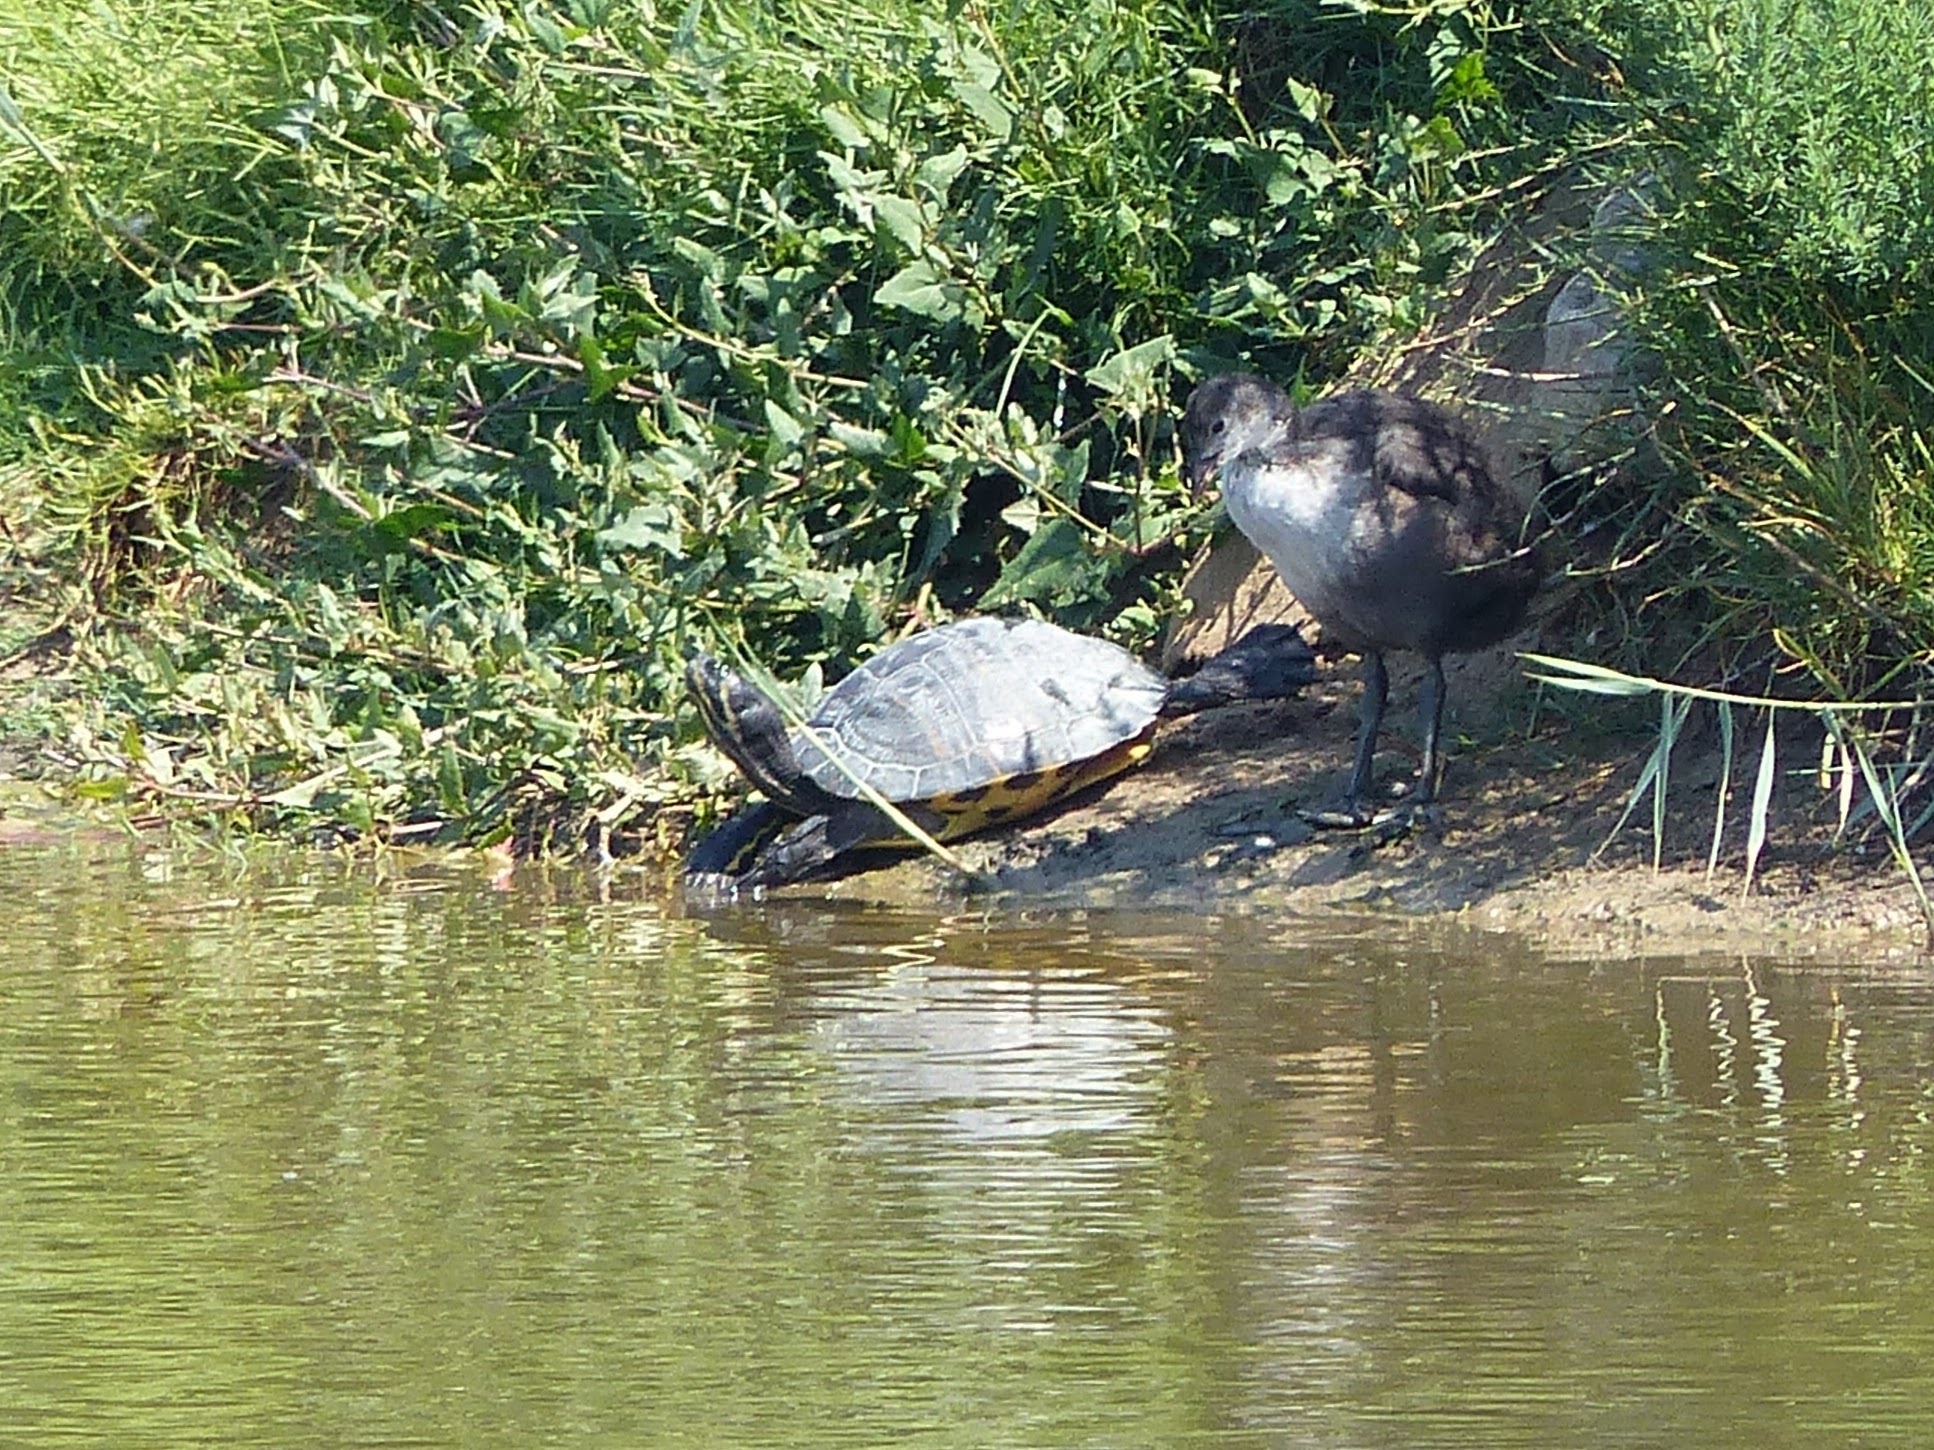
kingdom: Animalia
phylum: Chordata
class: Testudines
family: Emydidae
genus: Trachemys
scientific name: Trachemys scripta
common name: Slider
